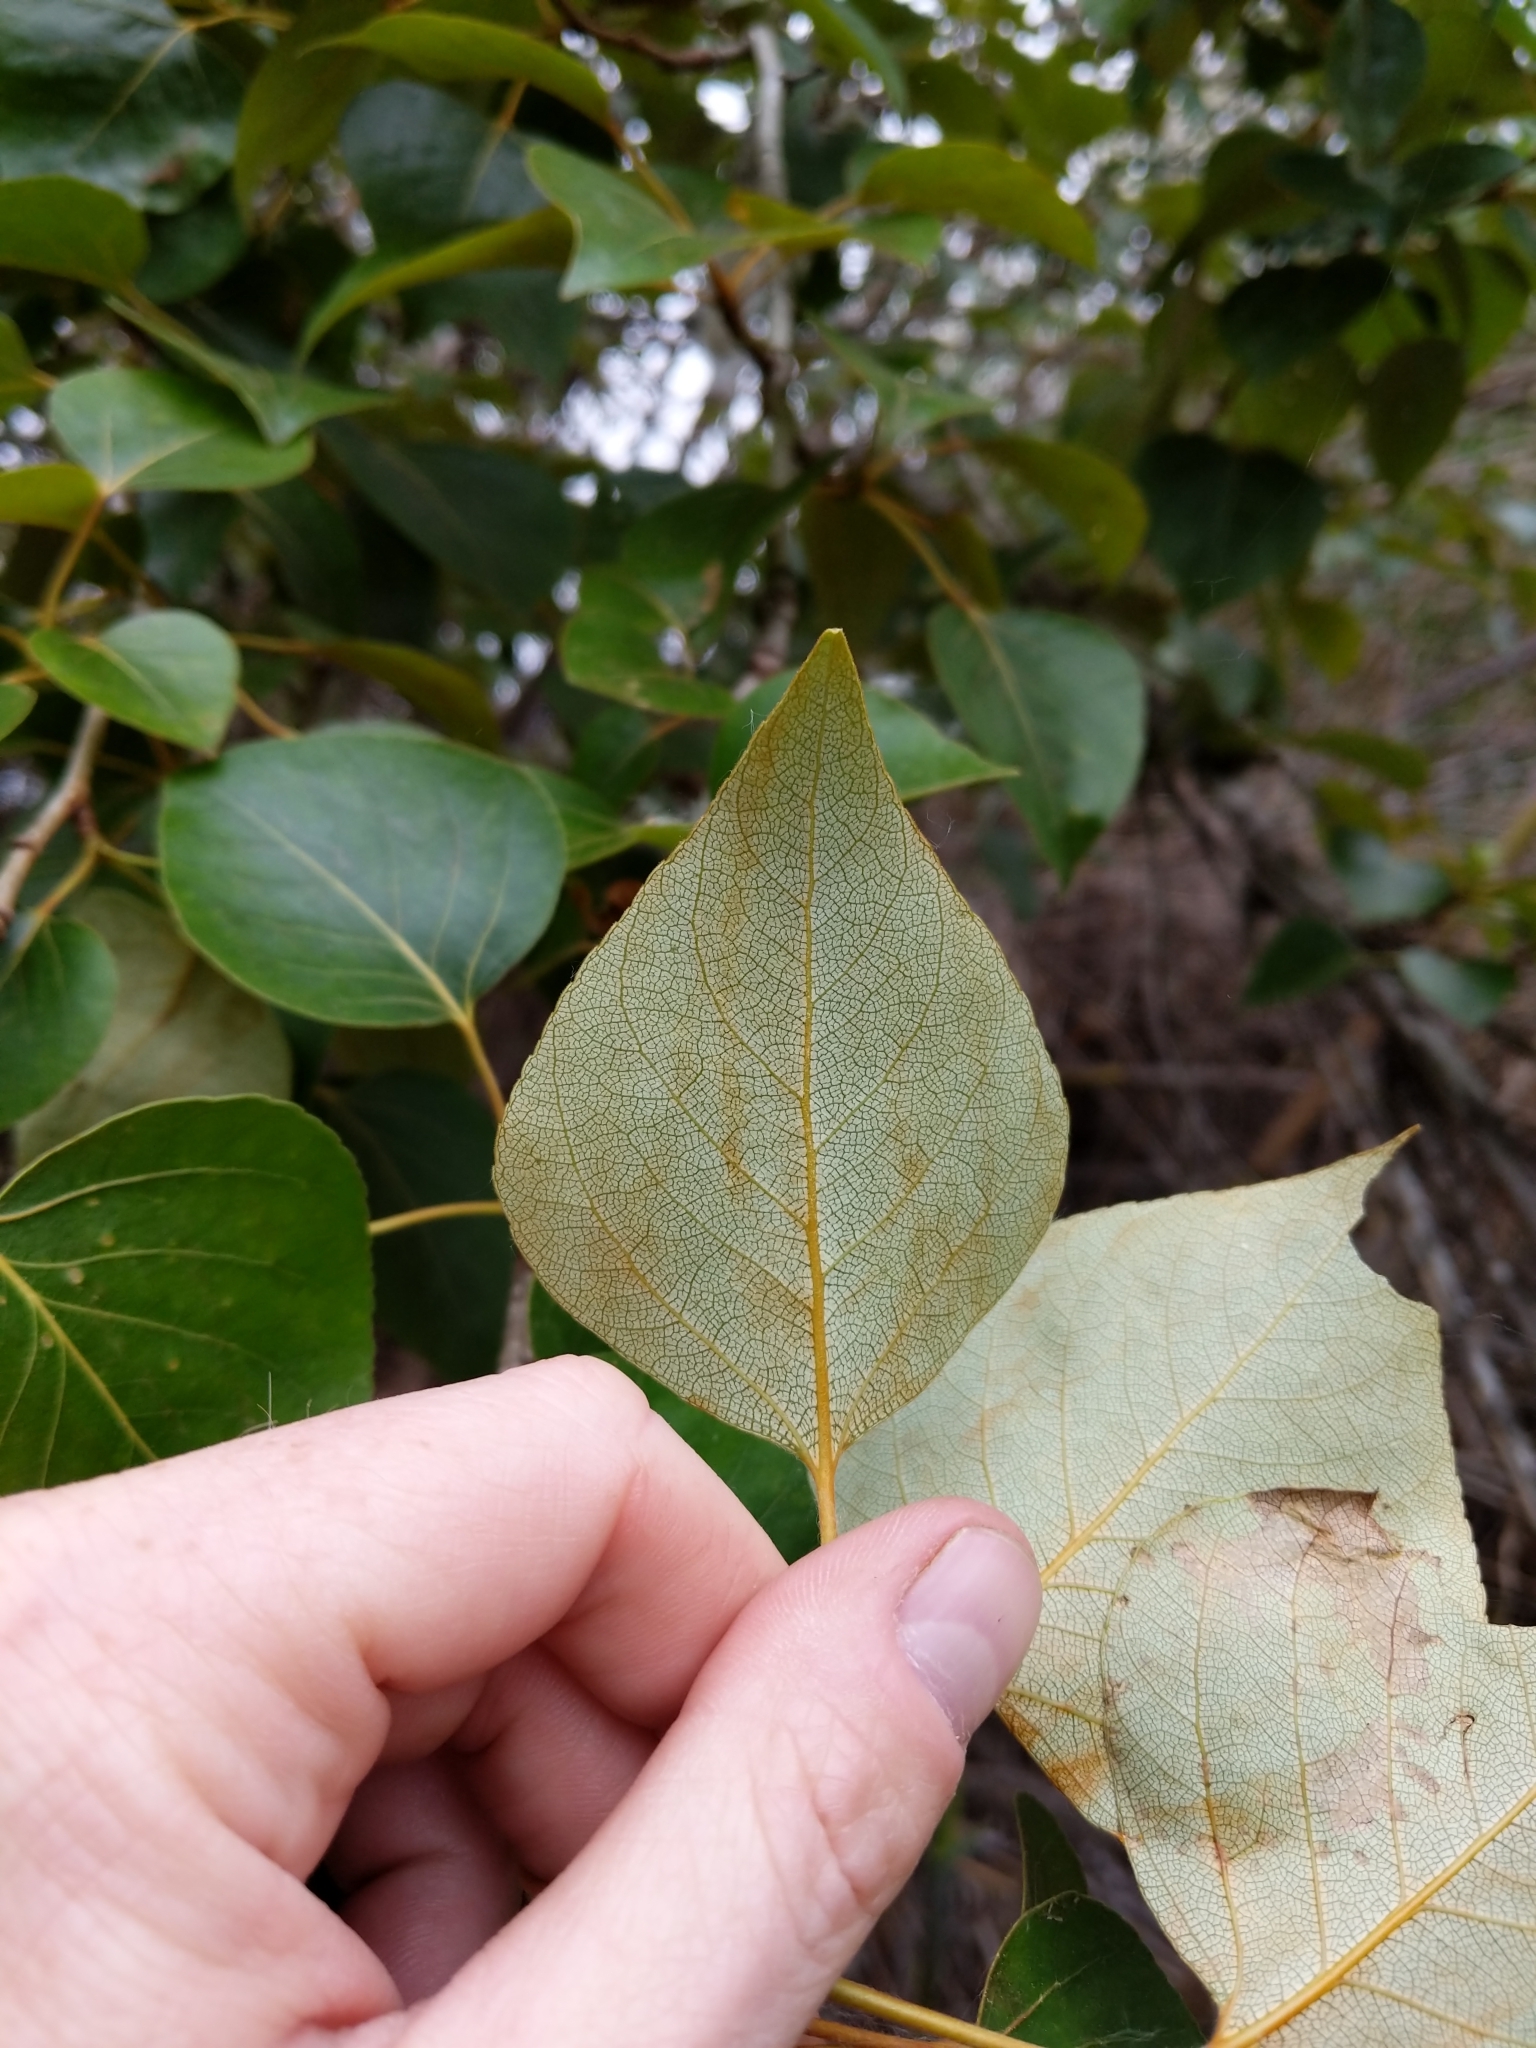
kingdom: Plantae
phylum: Tracheophyta
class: Magnoliopsida
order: Malpighiales
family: Salicaceae
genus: Populus
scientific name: Populus trichocarpa
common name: Black cottonwood
